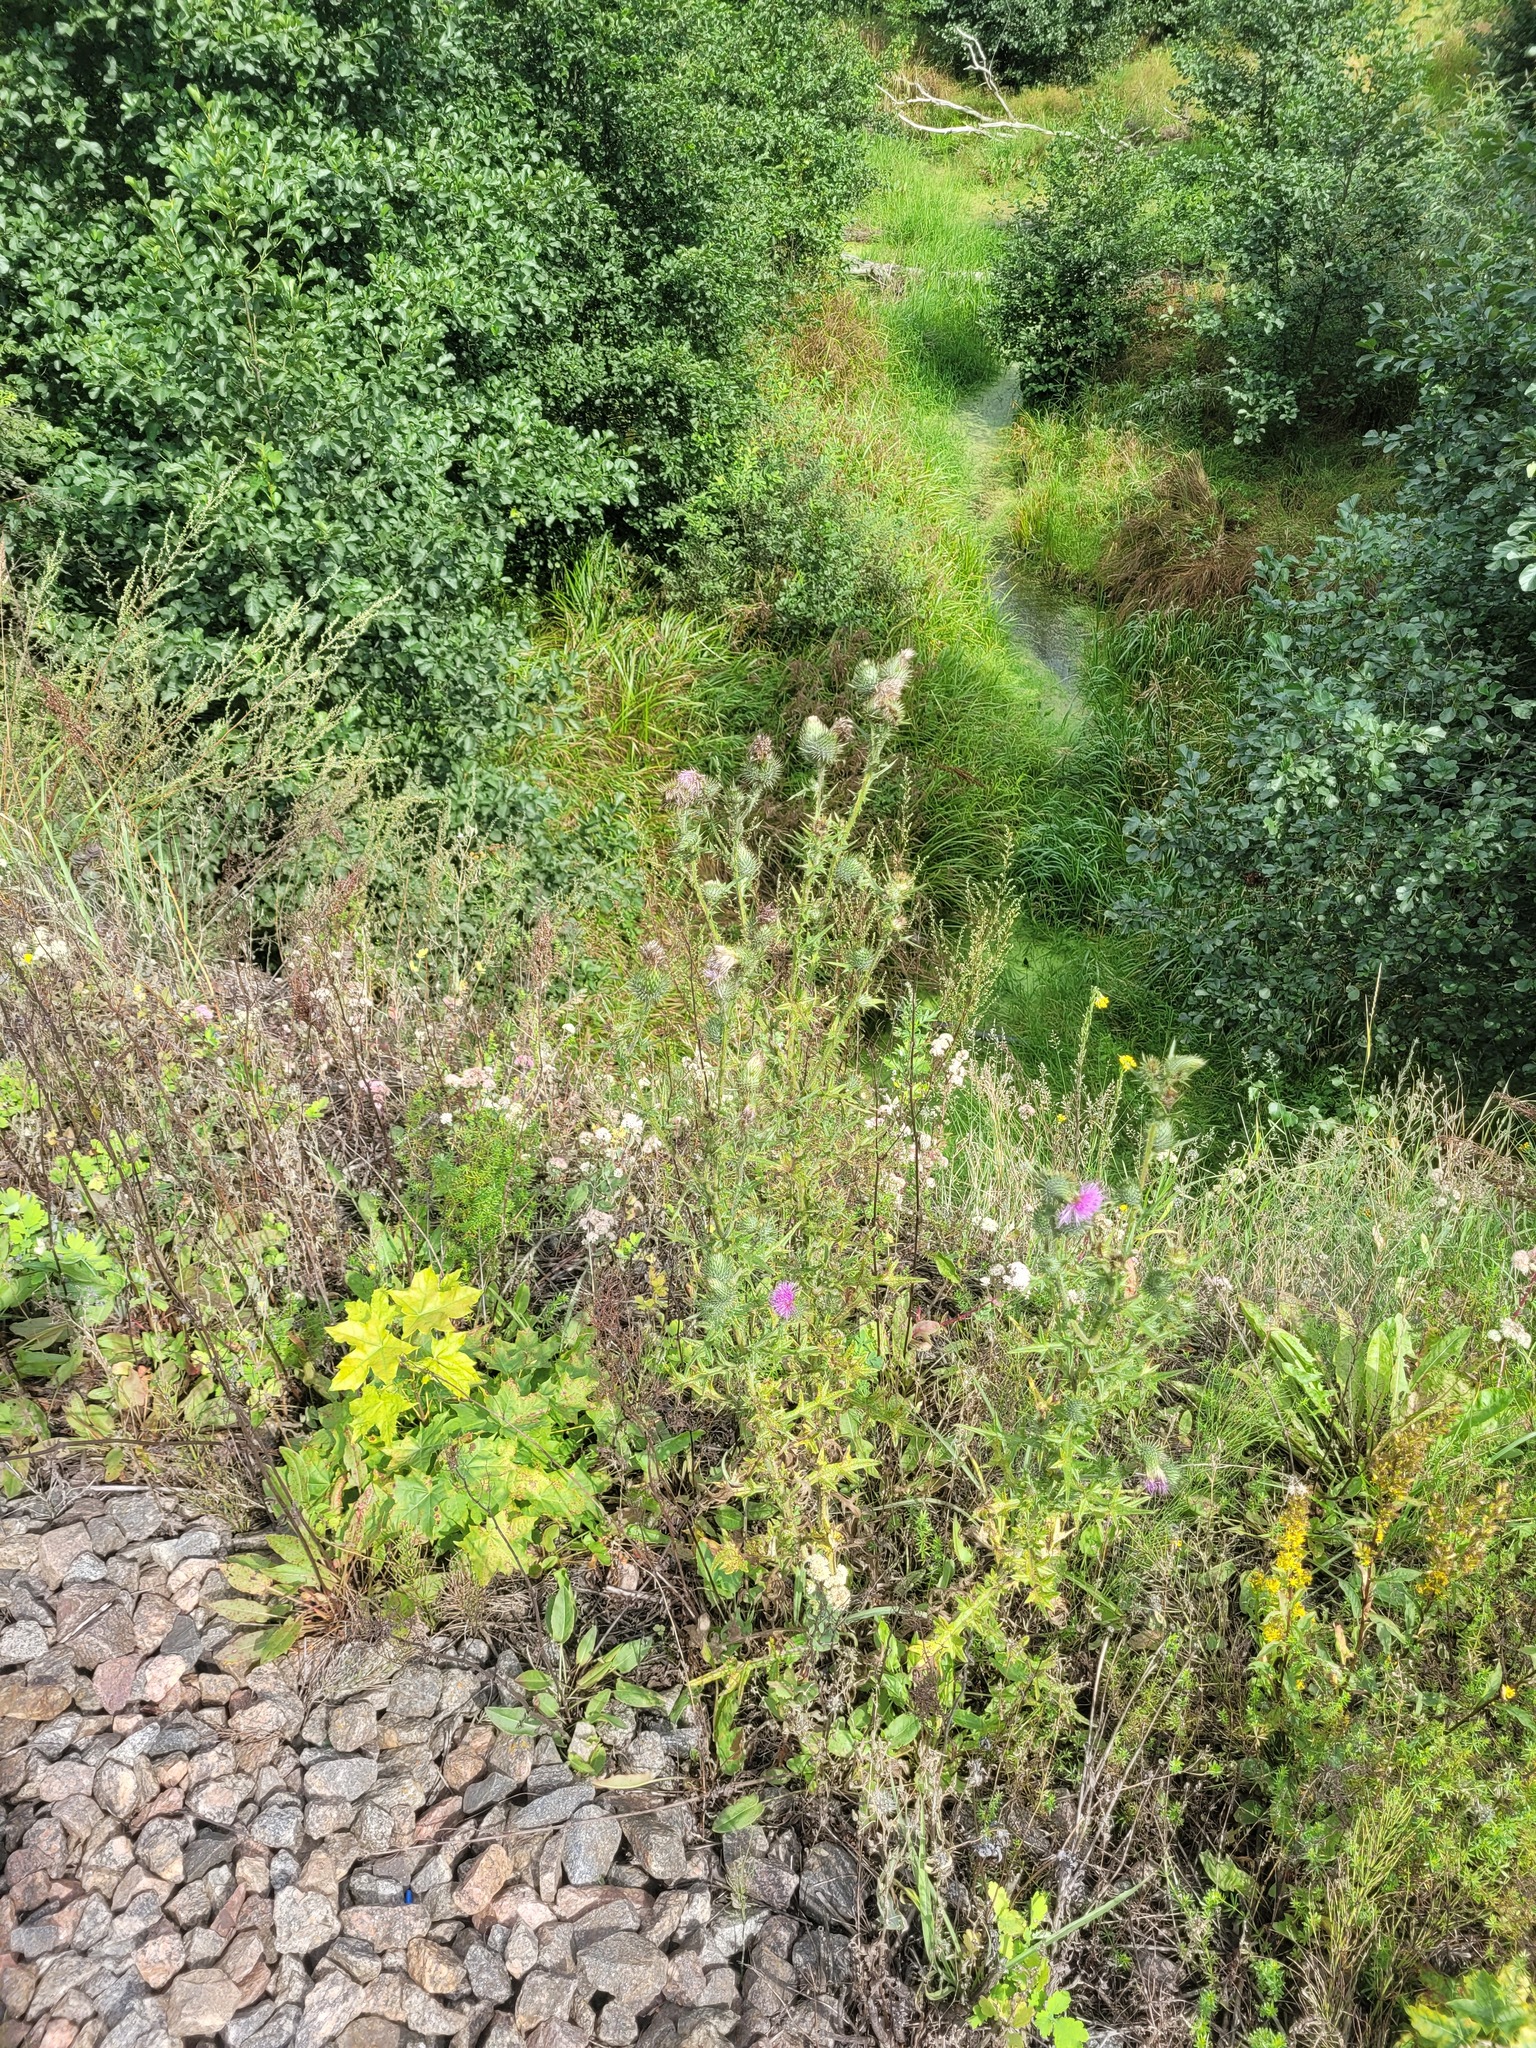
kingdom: Plantae
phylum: Tracheophyta
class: Magnoliopsida
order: Asterales
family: Asteraceae
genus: Cirsium
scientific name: Cirsium vulgare
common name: Bull thistle
